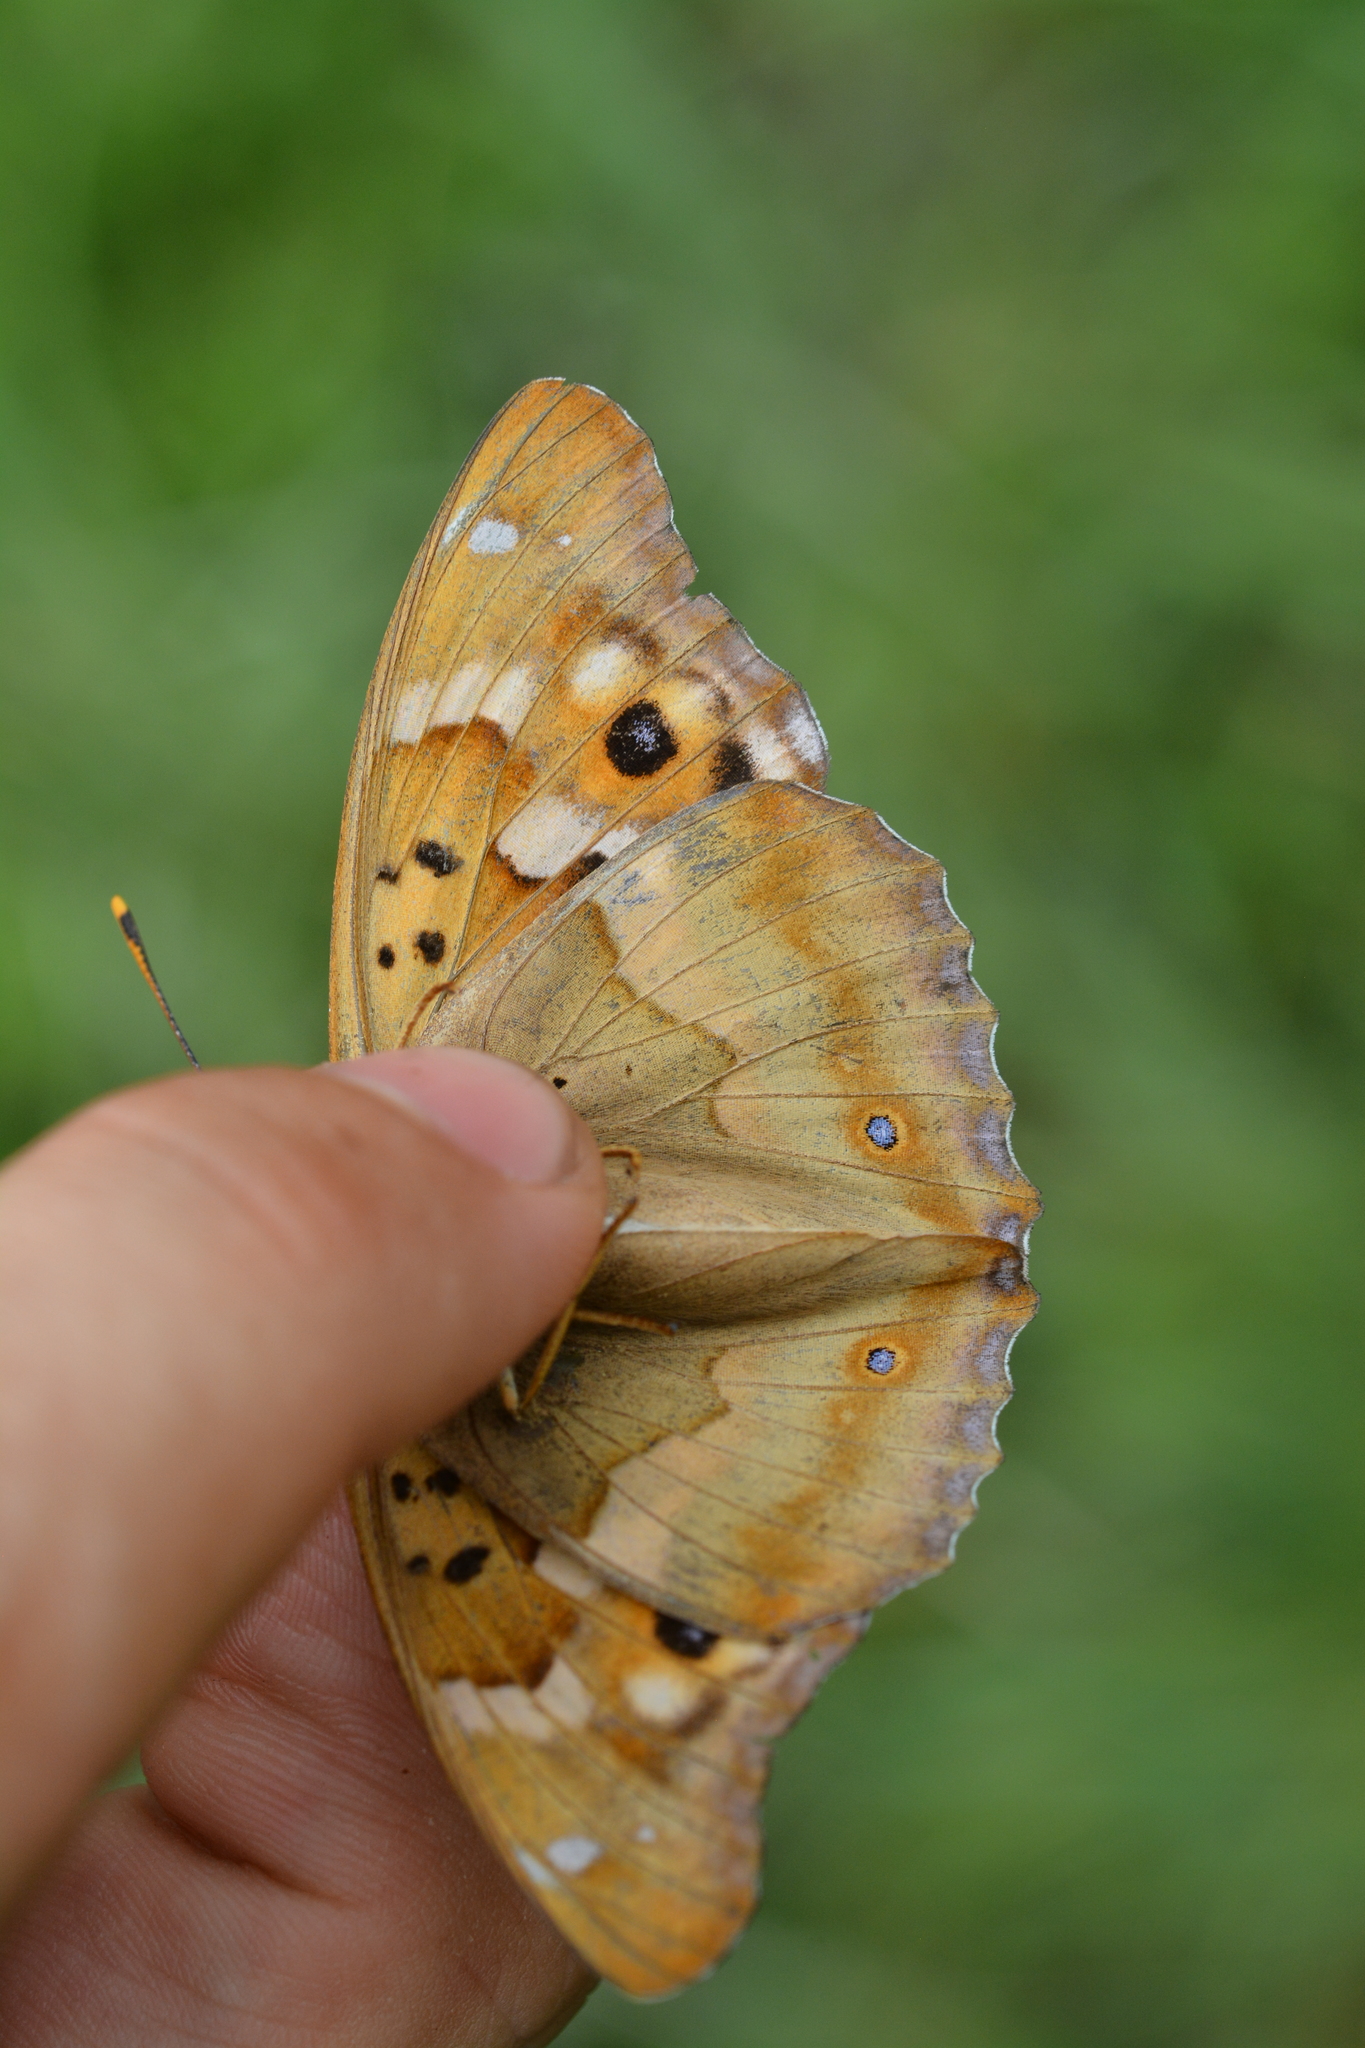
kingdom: Animalia
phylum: Arthropoda
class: Insecta
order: Lepidoptera
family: Nymphalidae
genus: Apatura
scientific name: Apatura ilia
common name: Lesser purple emperor
